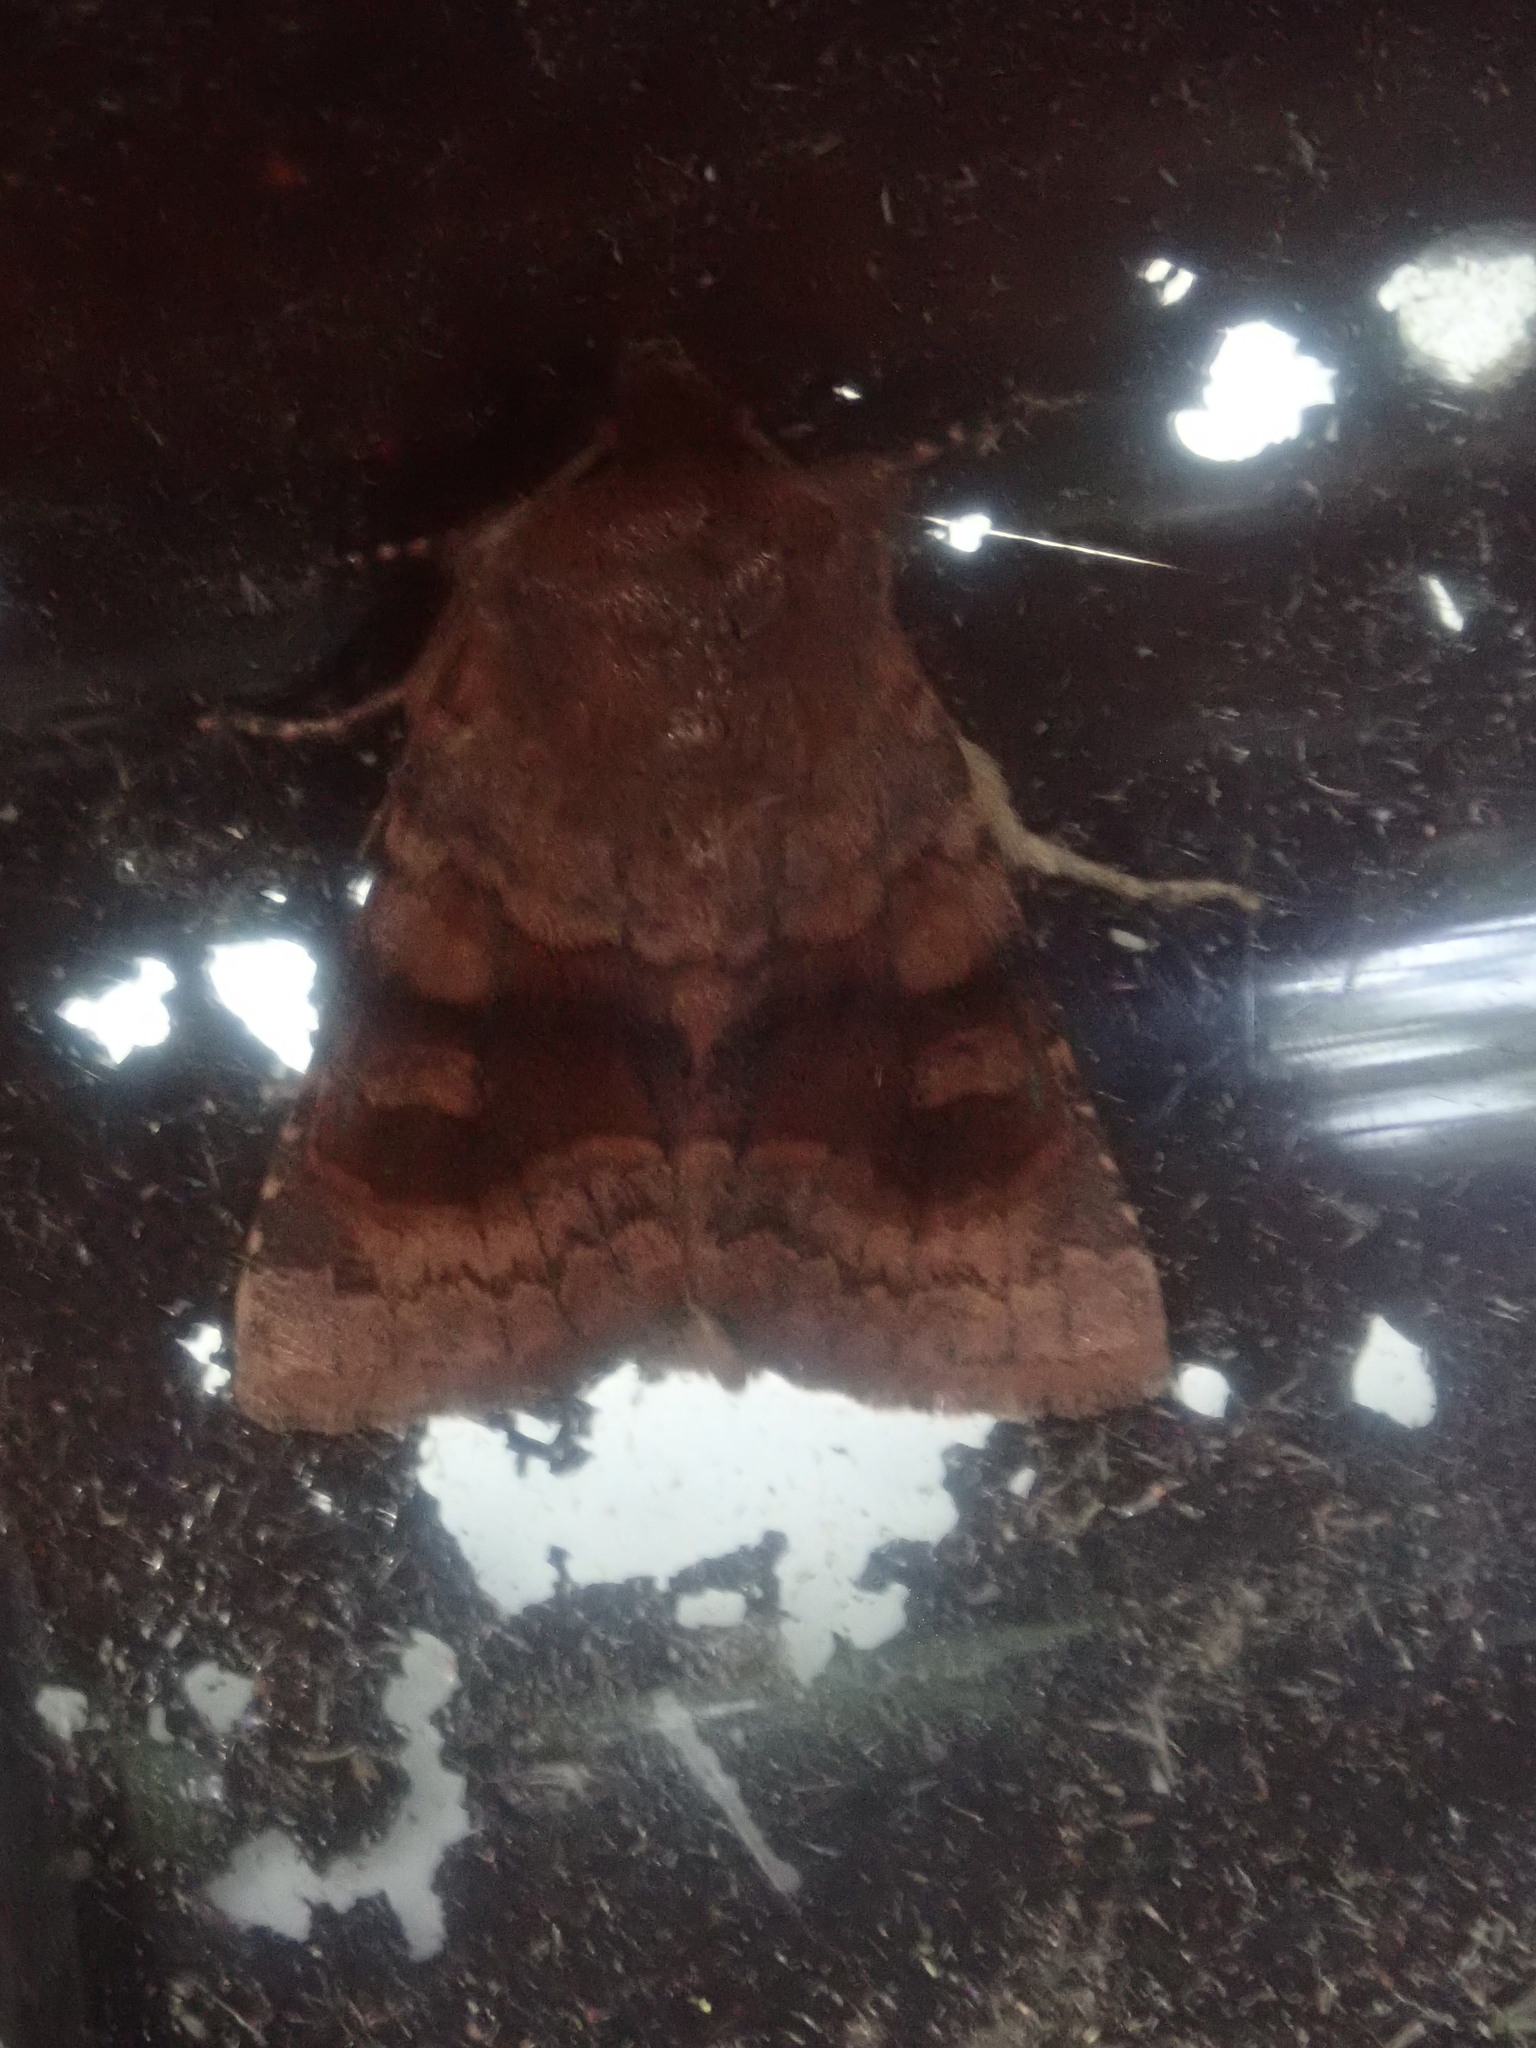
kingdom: Animalia
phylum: Arthropoda
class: Insecta
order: Lepidoptera
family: Noctuidae
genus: Nephelodes
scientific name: Nephelodes minians
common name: Bronzed cutworm
